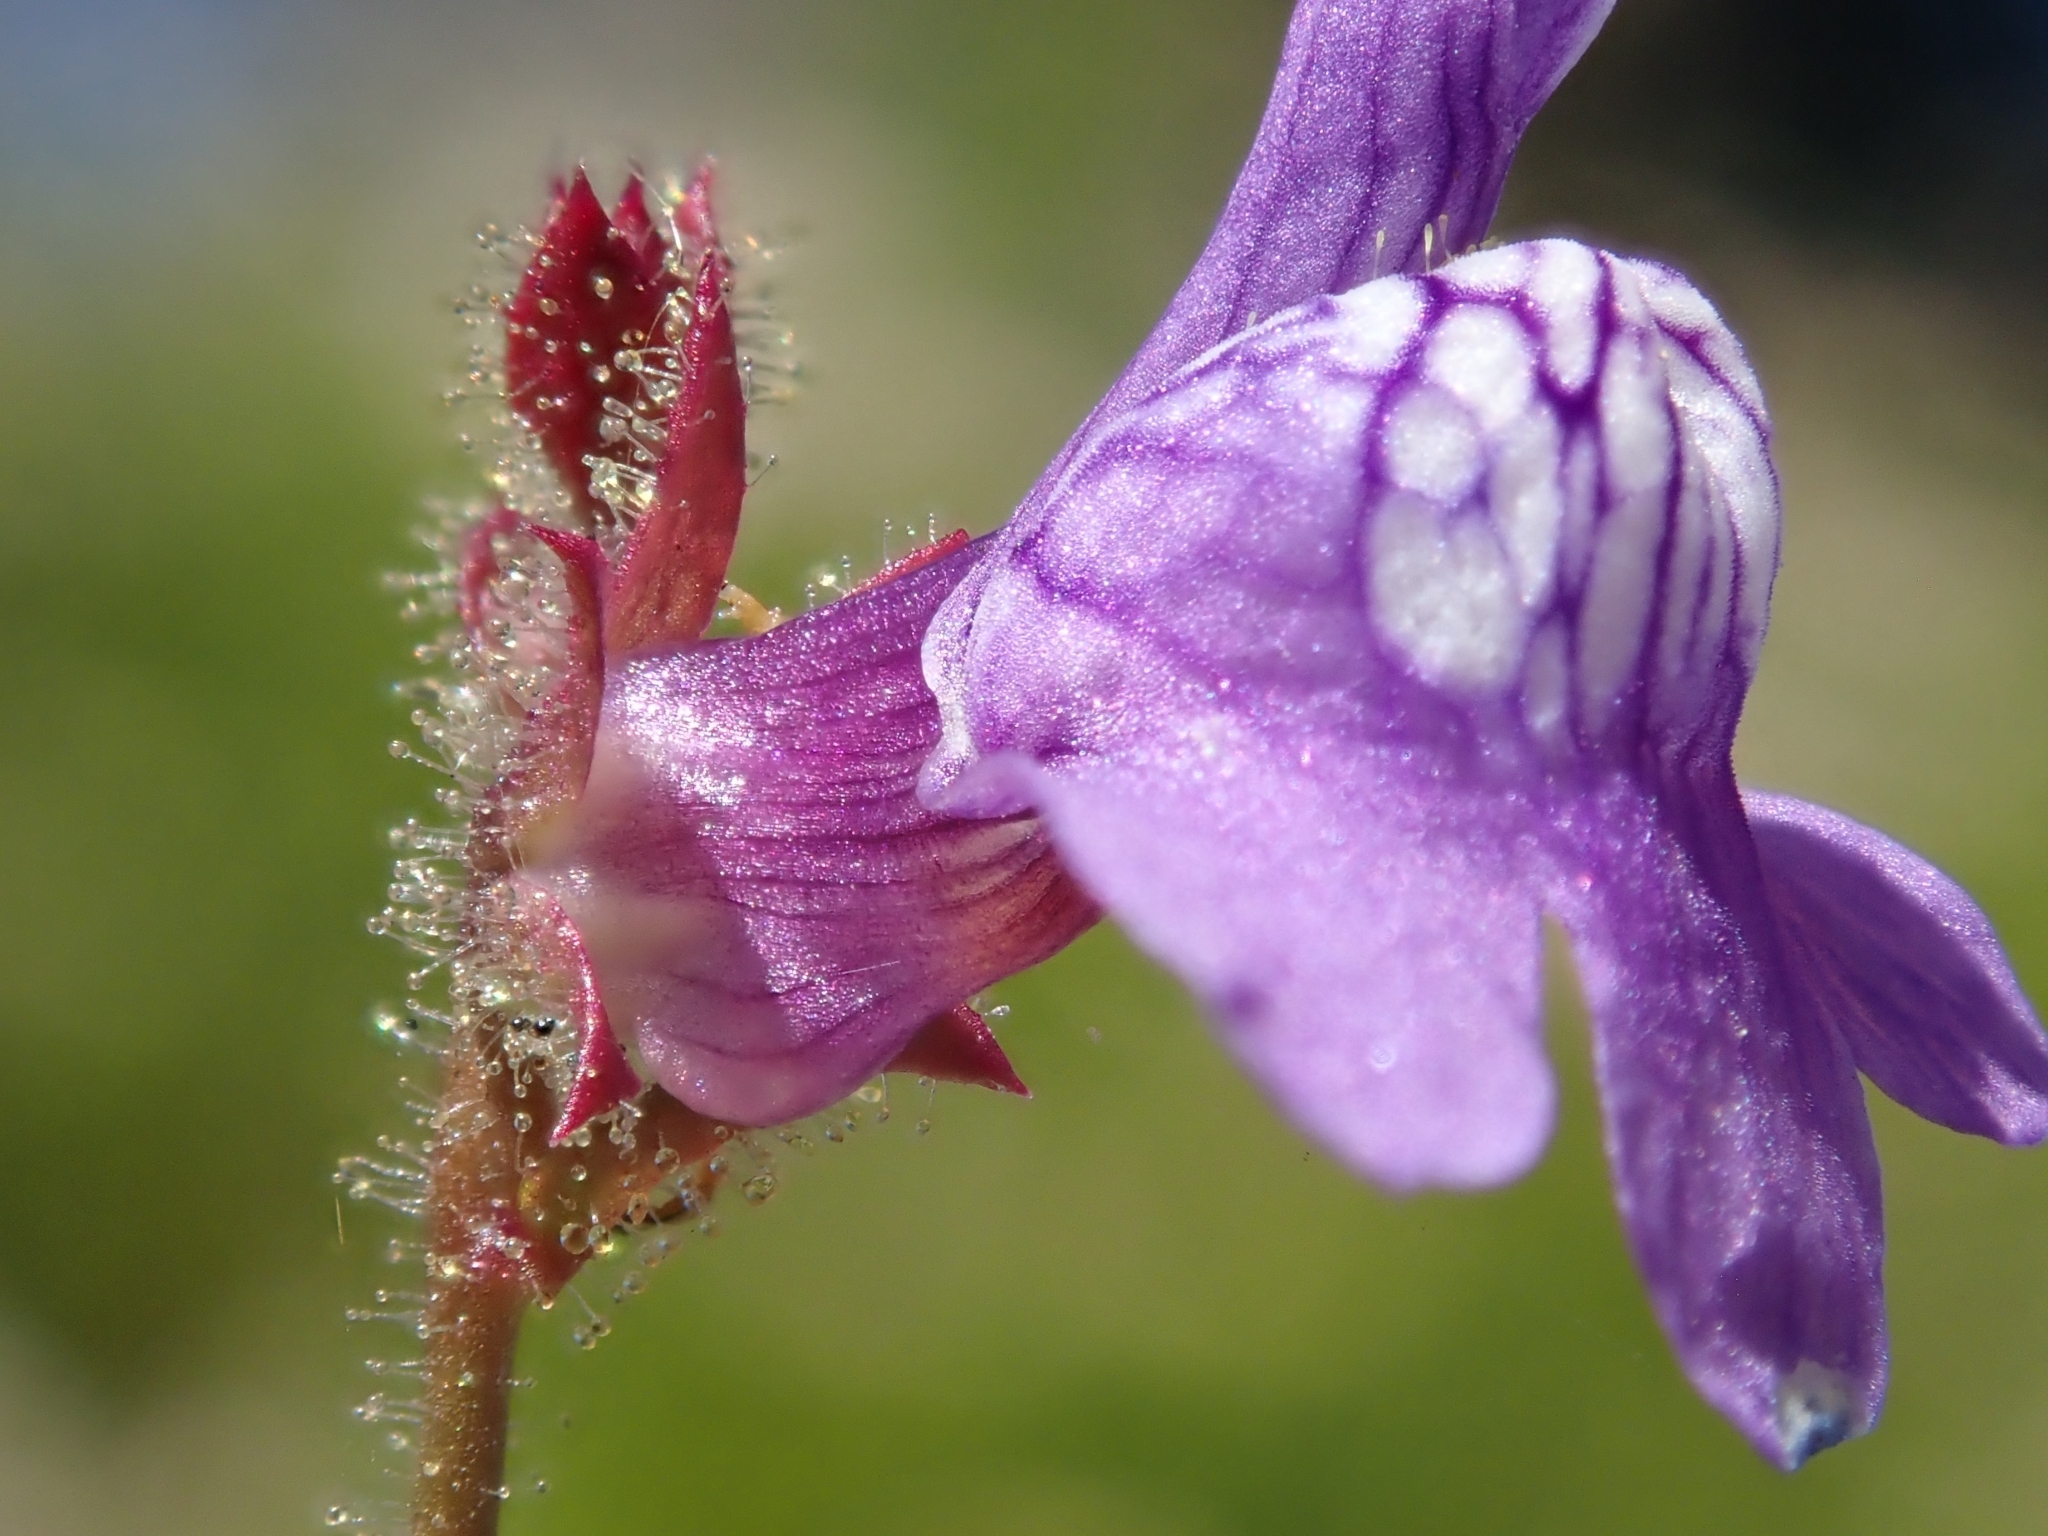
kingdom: Plantae
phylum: Tracheophyta
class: Magnoliopsida
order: Lamiales
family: Plantaginaceae
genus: Sairocarpus
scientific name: Sairocarpus nuttallianus
